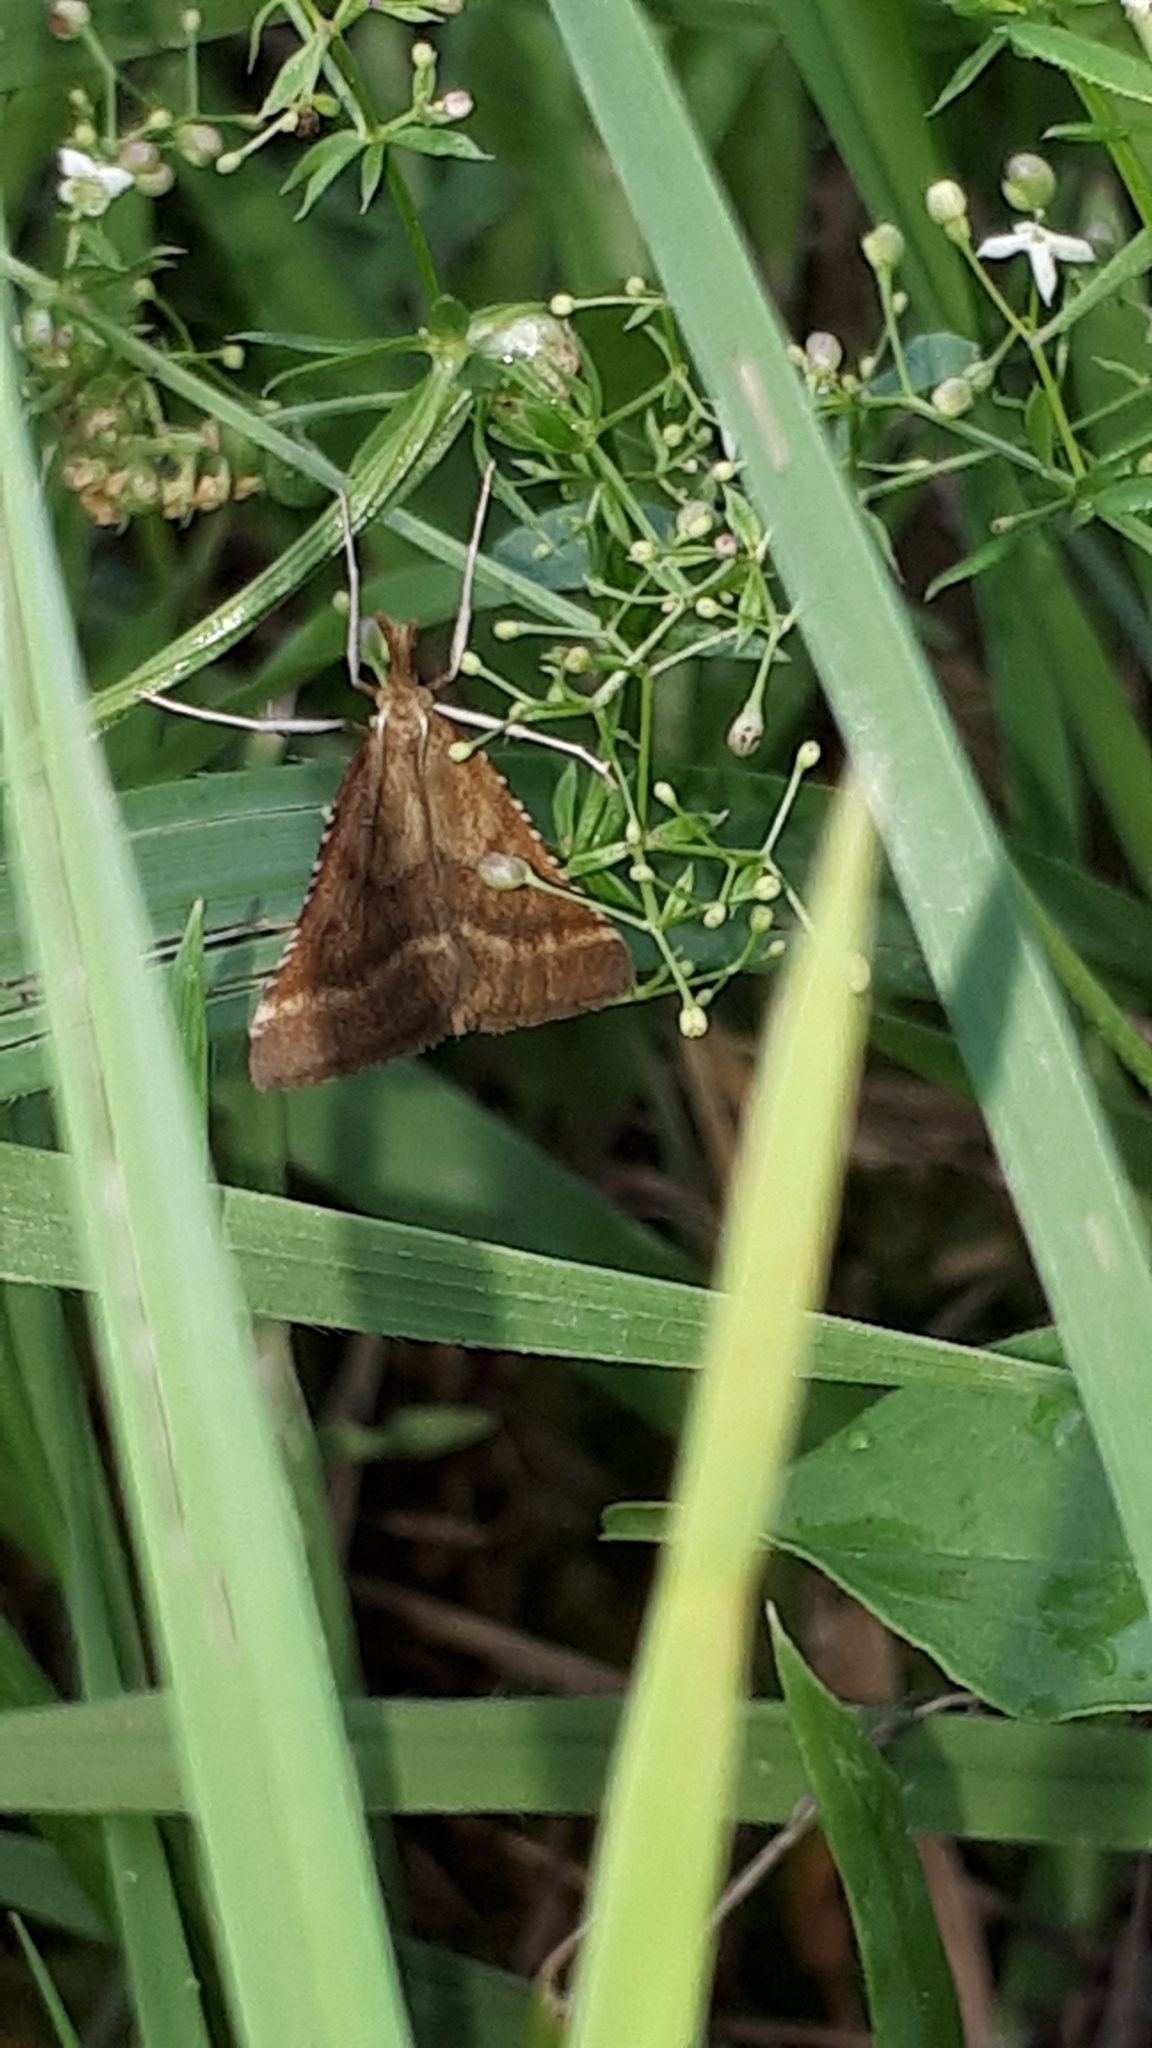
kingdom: Animalia
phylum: Arthropoda
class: Insecta
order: Lepidoptera
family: Pyralidae
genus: Synaphe
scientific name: Synaphe punctalis
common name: Long-legged tabby
